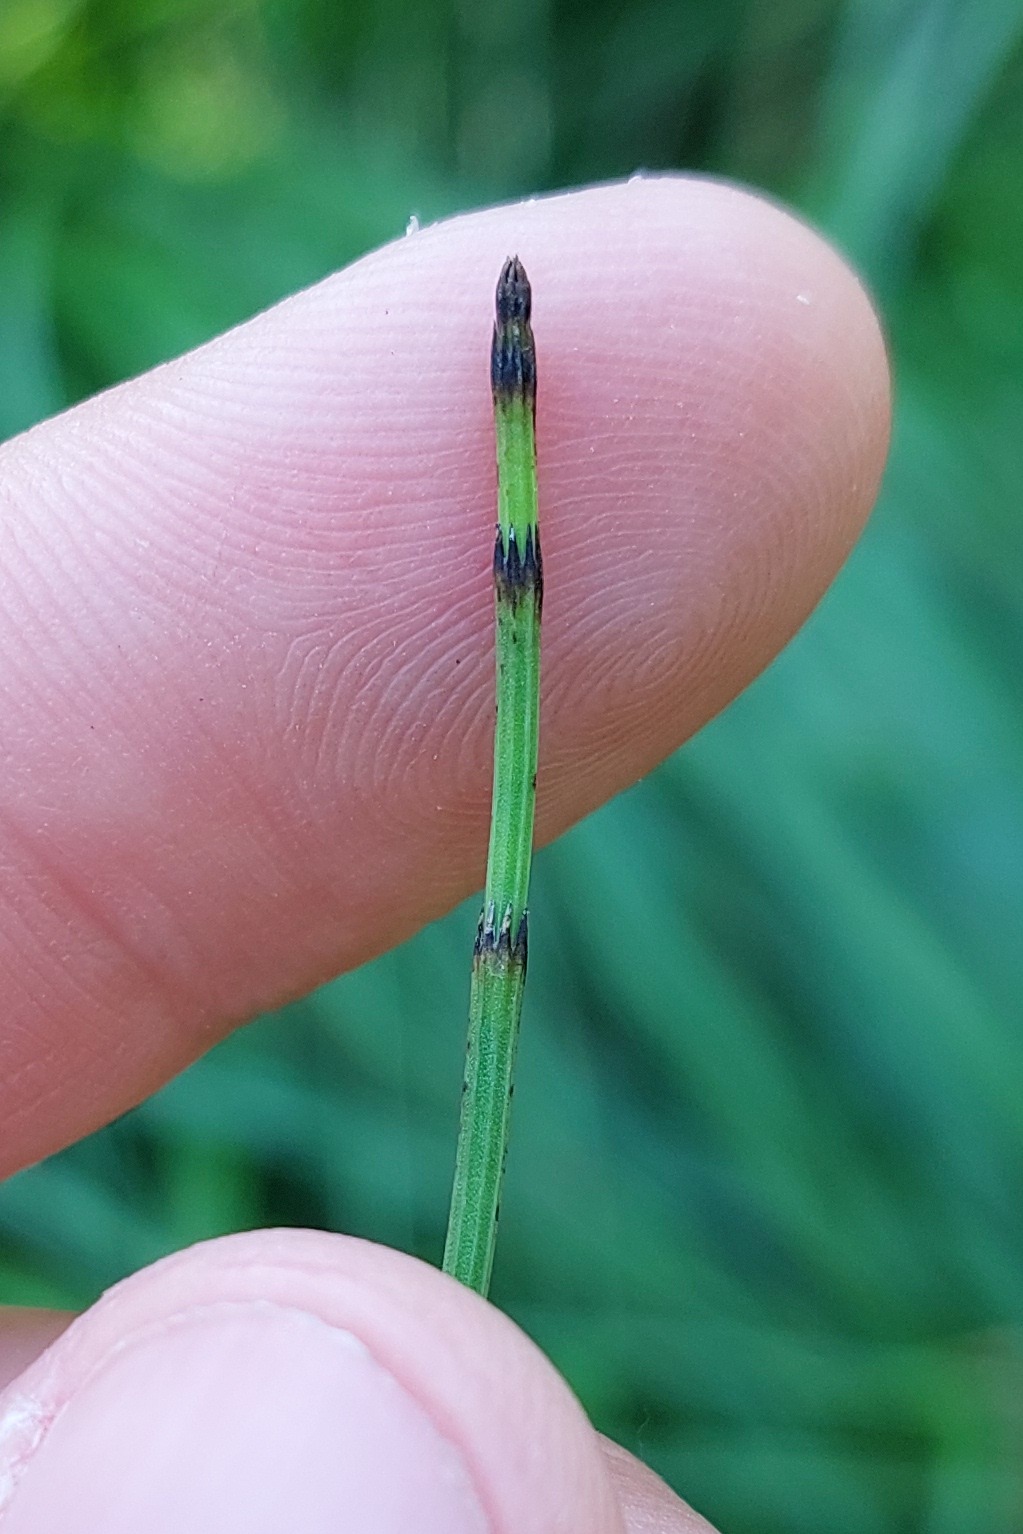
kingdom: Plantae
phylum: Tracheophyta
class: Polypodiopsida
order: Equisetales
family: Equisetaceae
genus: Equisetum
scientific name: Equisetum fluviatile
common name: Water horsetail
